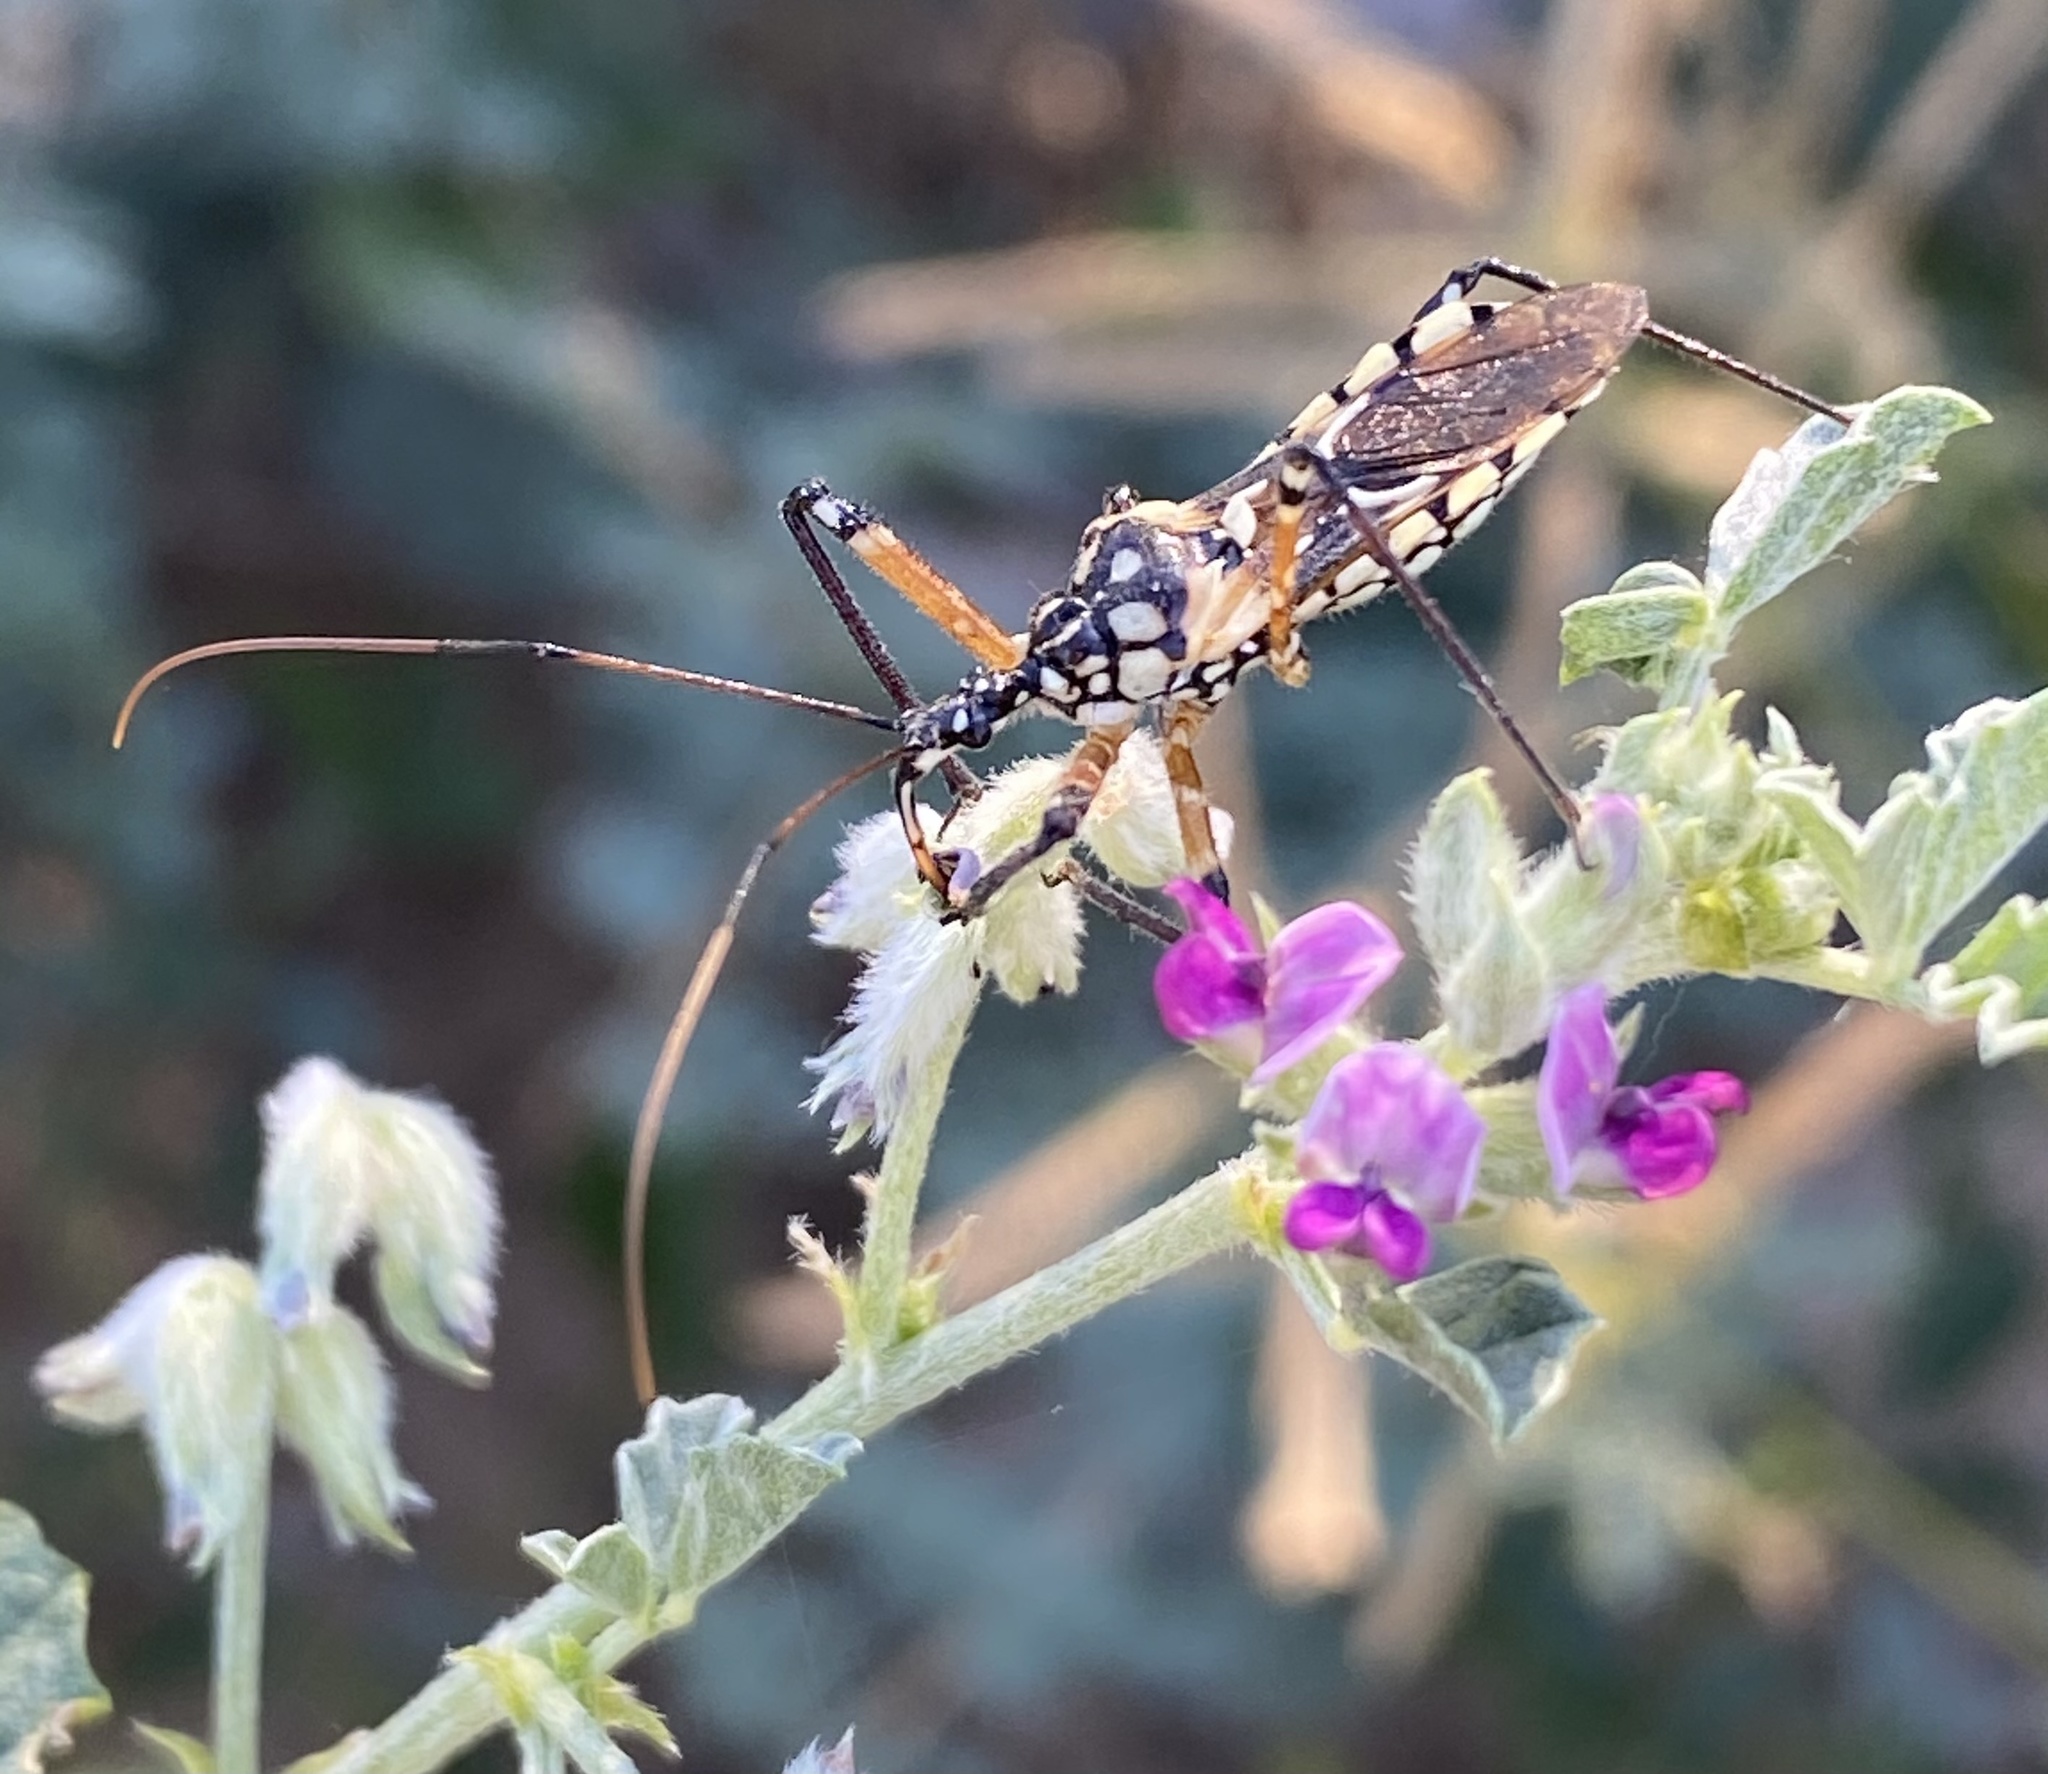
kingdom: Animalia
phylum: Arthropoda
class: Insecta
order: Hemiptera
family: Reduviidae
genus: Cosmolestes
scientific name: Cosmolestes pictus
